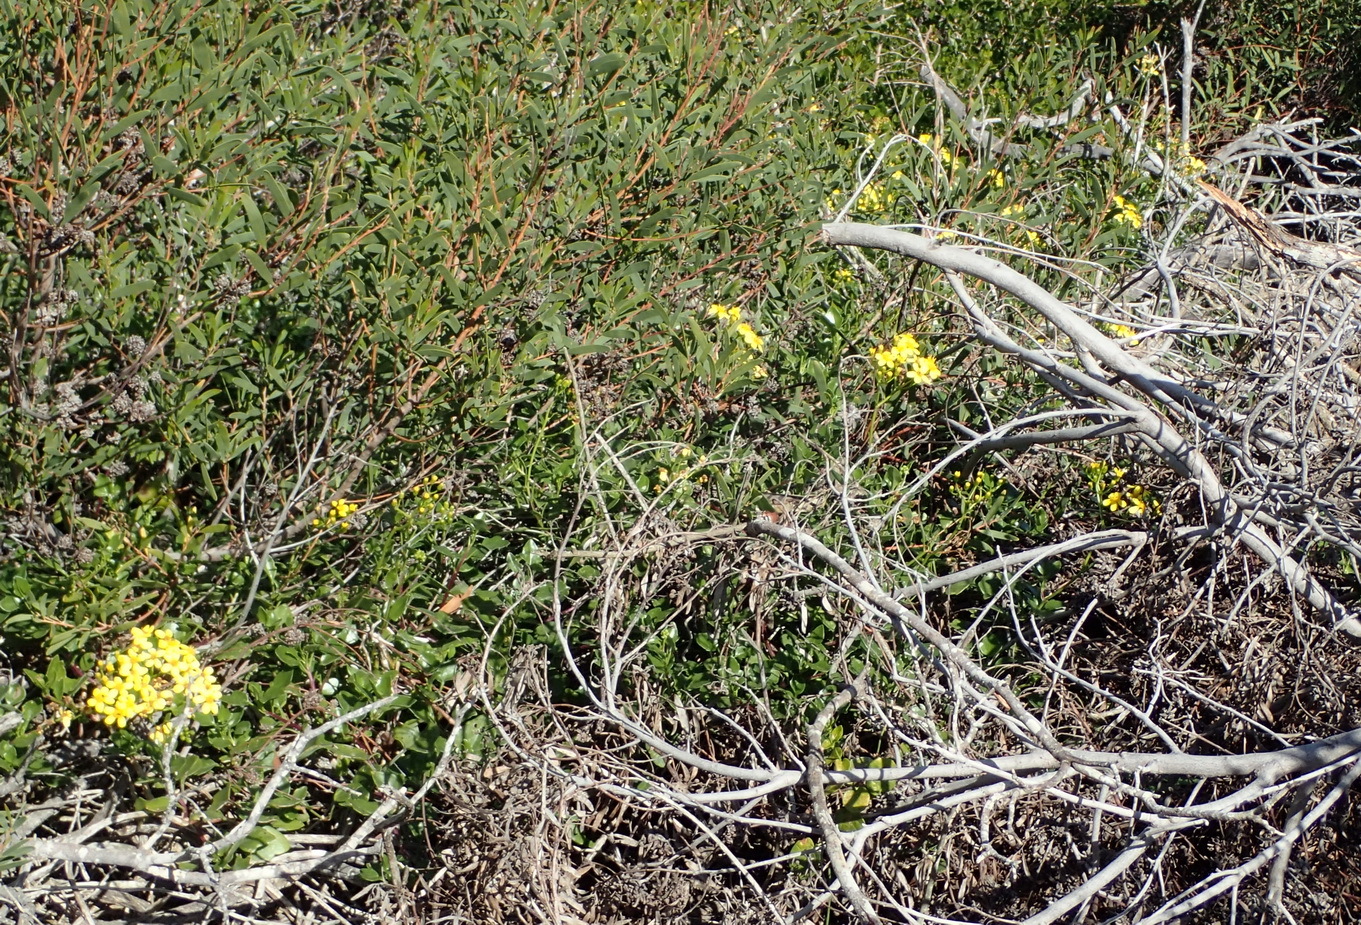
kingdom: Plantae
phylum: Tracheophyta
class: Magnoliopsida
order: Asterales
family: Asteraceae
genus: Senecio
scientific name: Senecio angulatus
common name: Climbing groundsel
